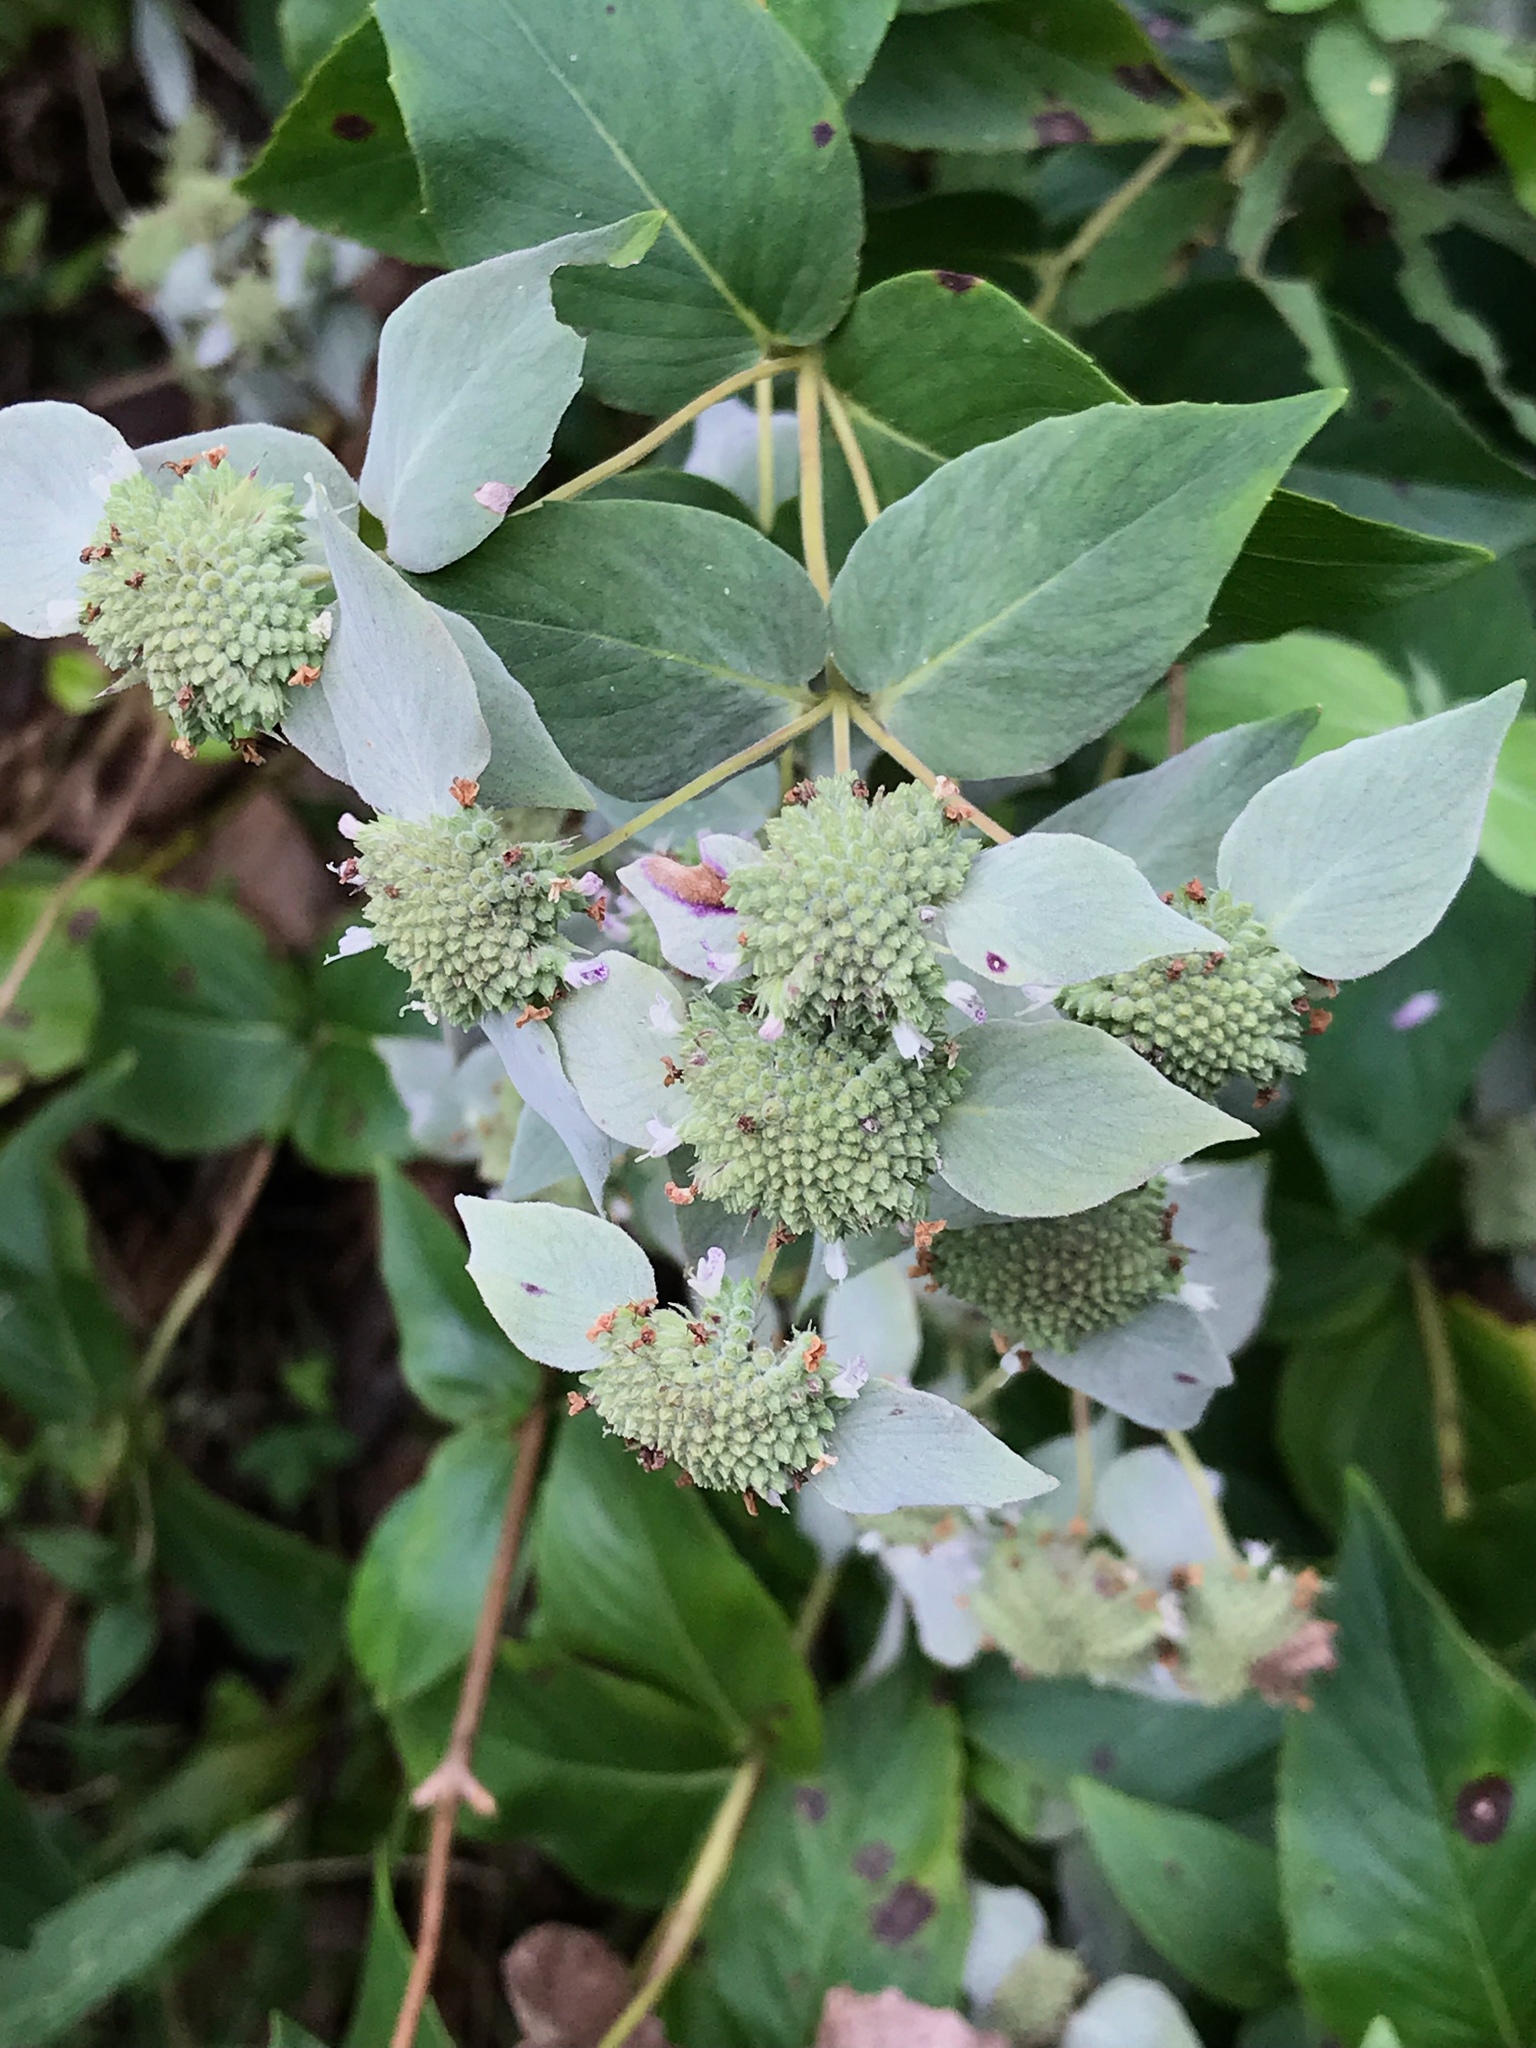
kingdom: Plantae
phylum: Tracheophyta
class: Magnoliopsida
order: Lamiales
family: Lamiaceae
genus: Pycnanthemum
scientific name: Pycnanthemum muticum
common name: Blunt mountain-mint
